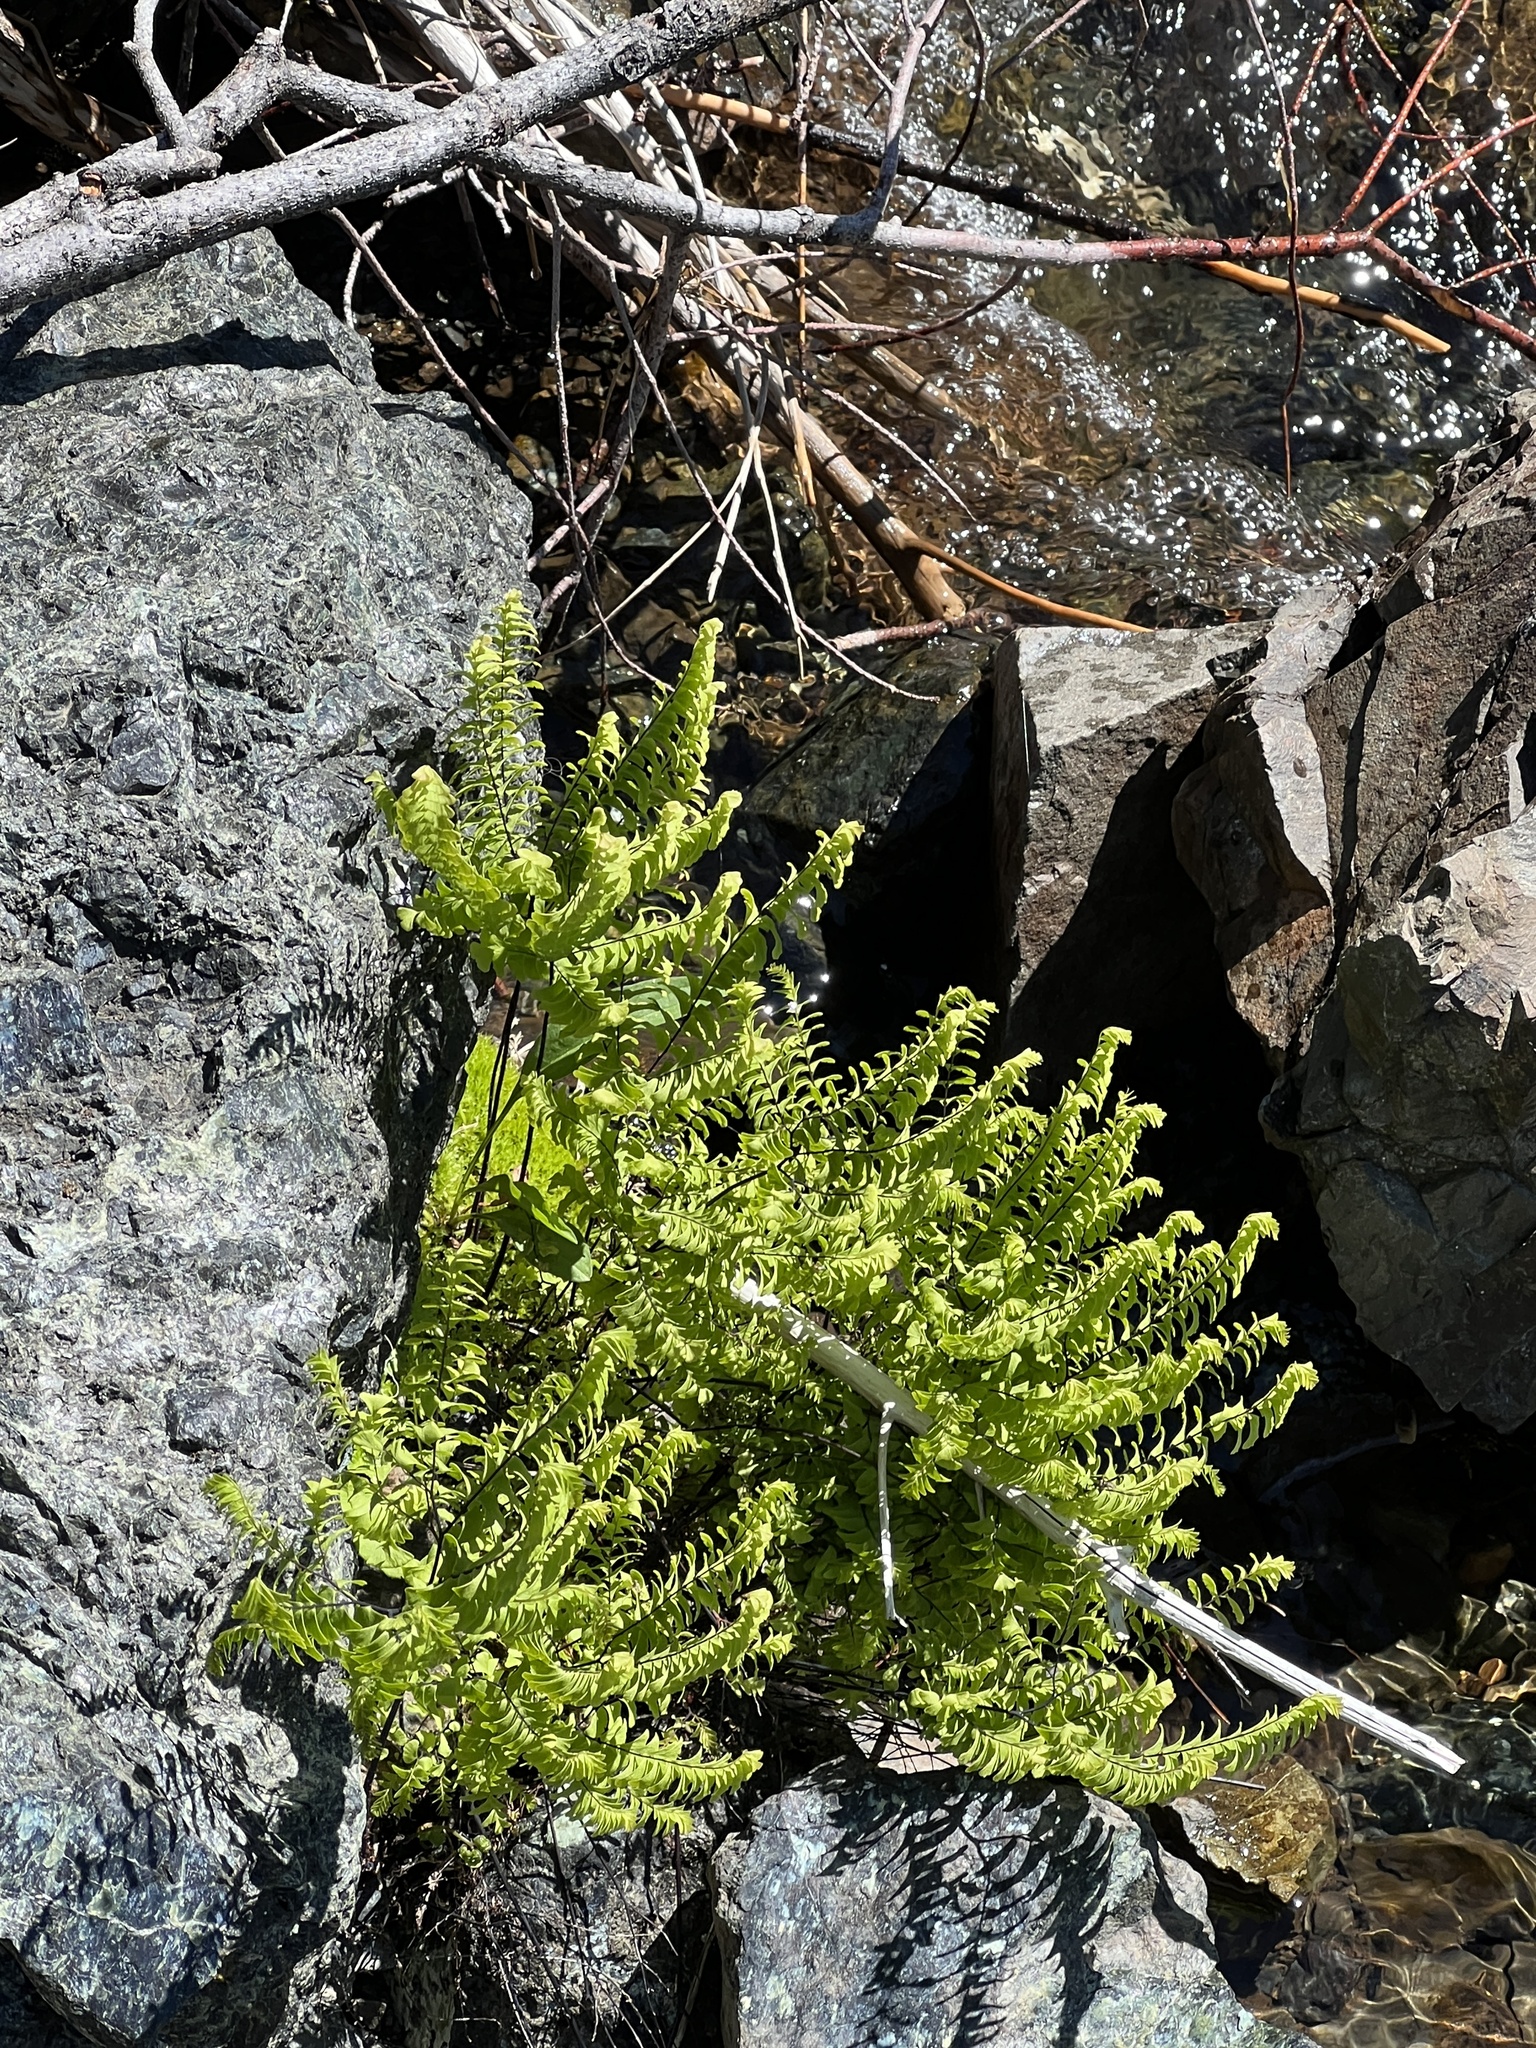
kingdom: Plantae
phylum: Tracheophyta
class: Polypodiopsida
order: Polypodiales
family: Pteridaceae
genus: Adiantum
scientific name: Adiantum aleuticum
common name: Aleutian maidenhair fern
